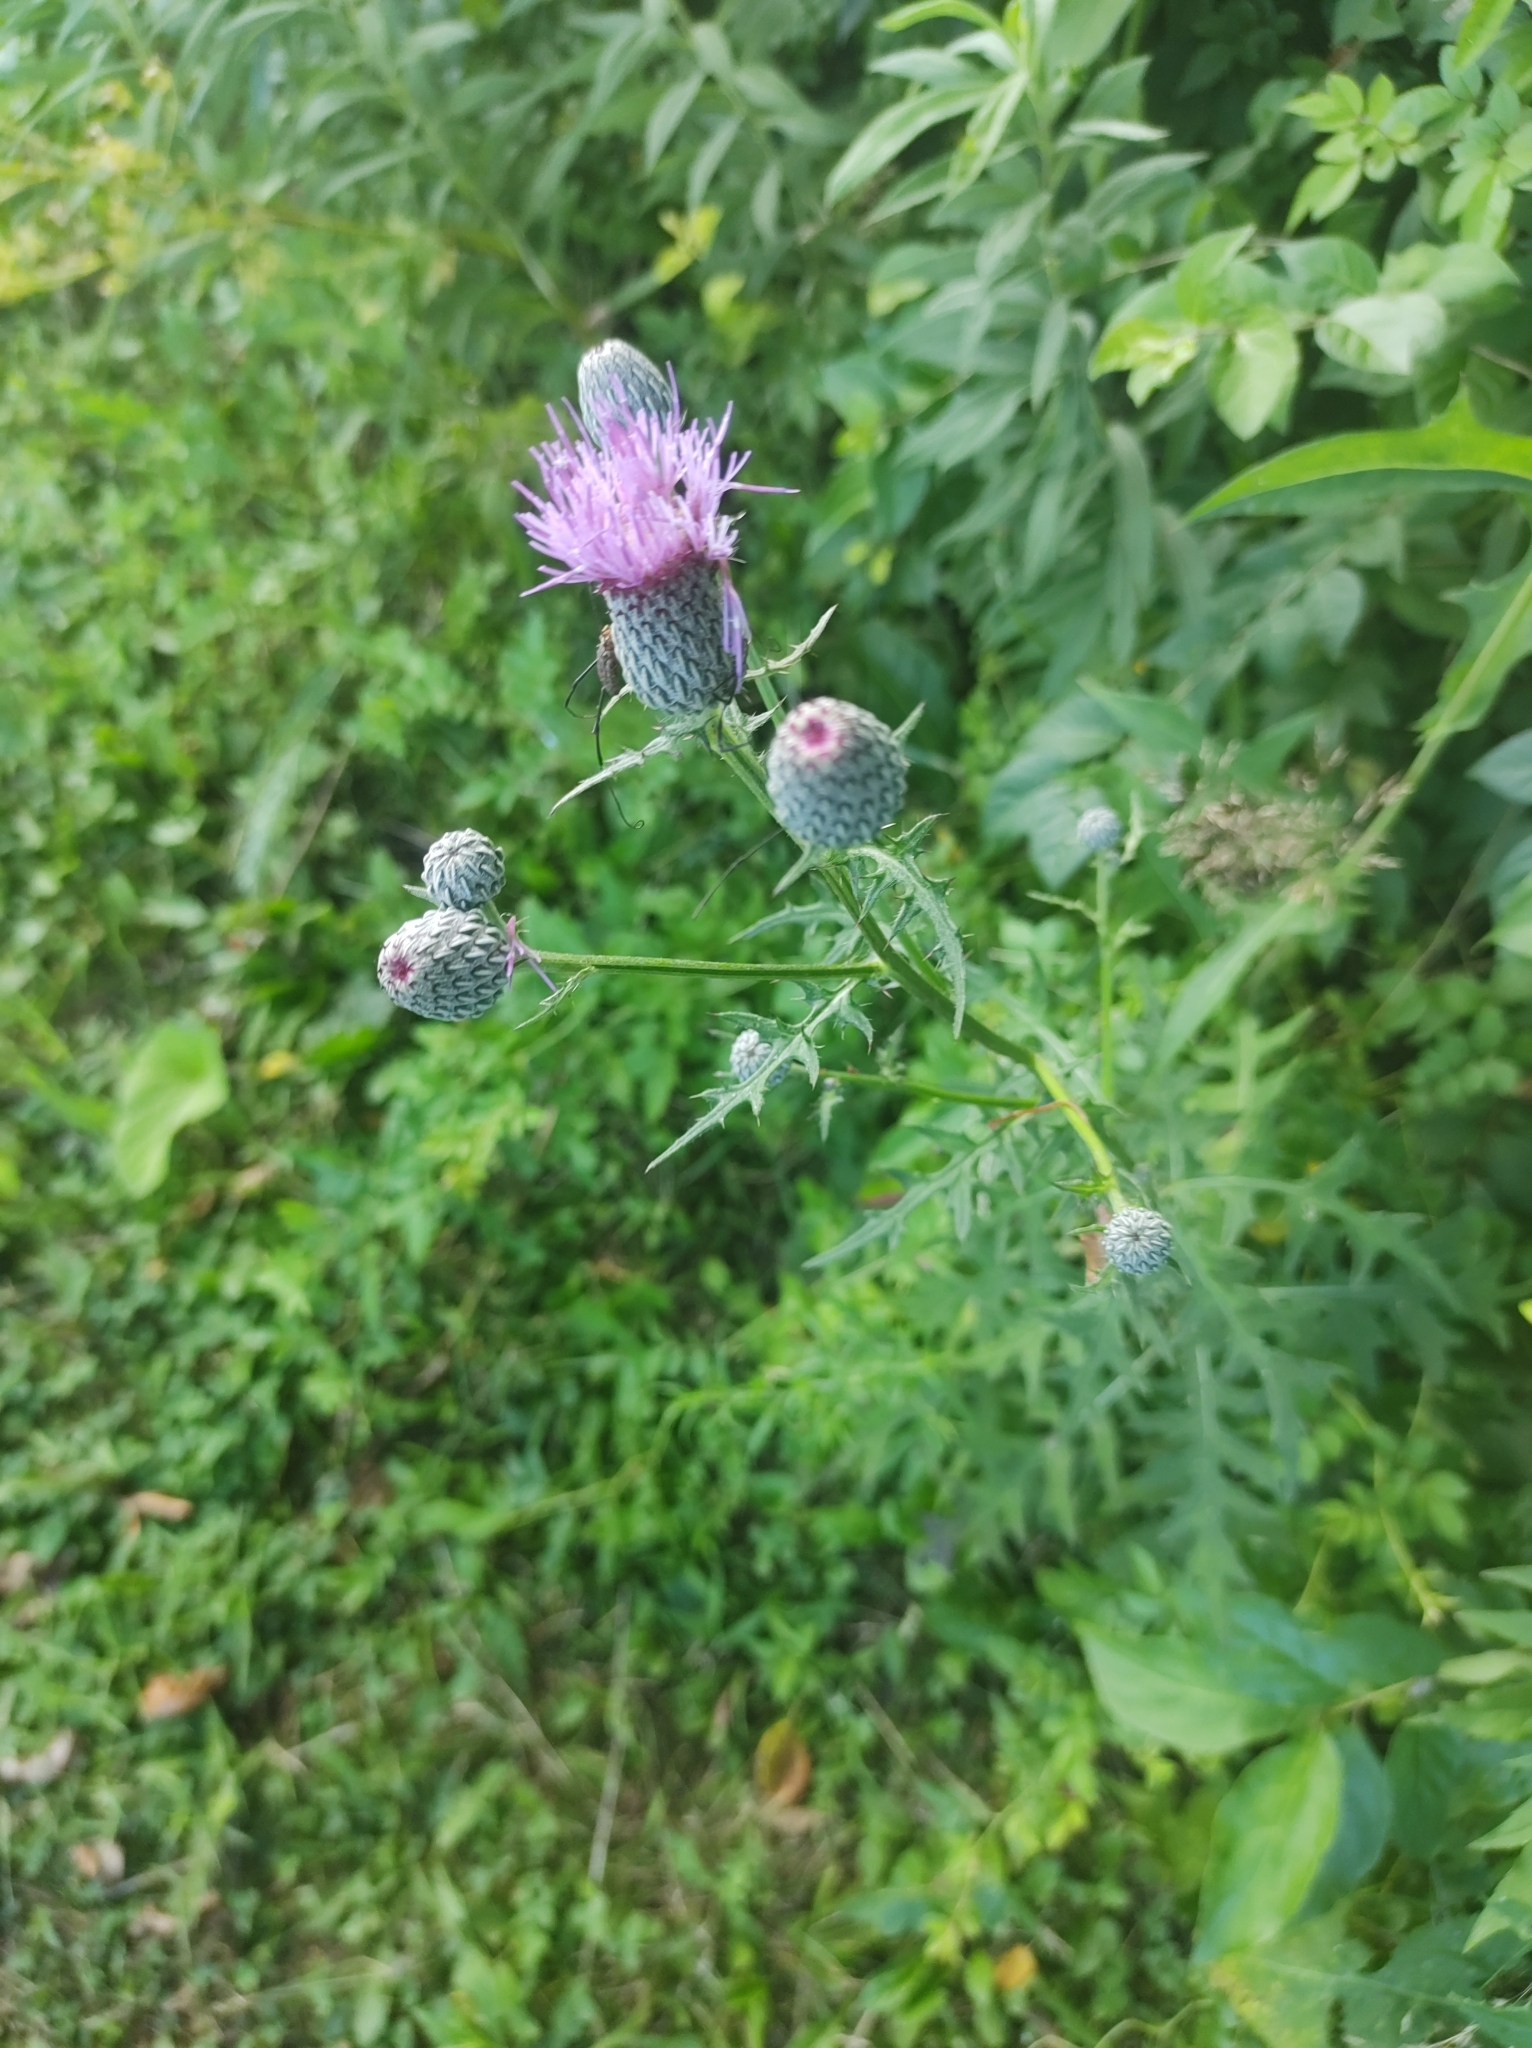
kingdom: Plantae
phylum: Tracheophyta
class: Magnoliopsida
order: Asterales
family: Asteraceae
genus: Cirsium
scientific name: Cirsium muticum
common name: Dunce-nettle
